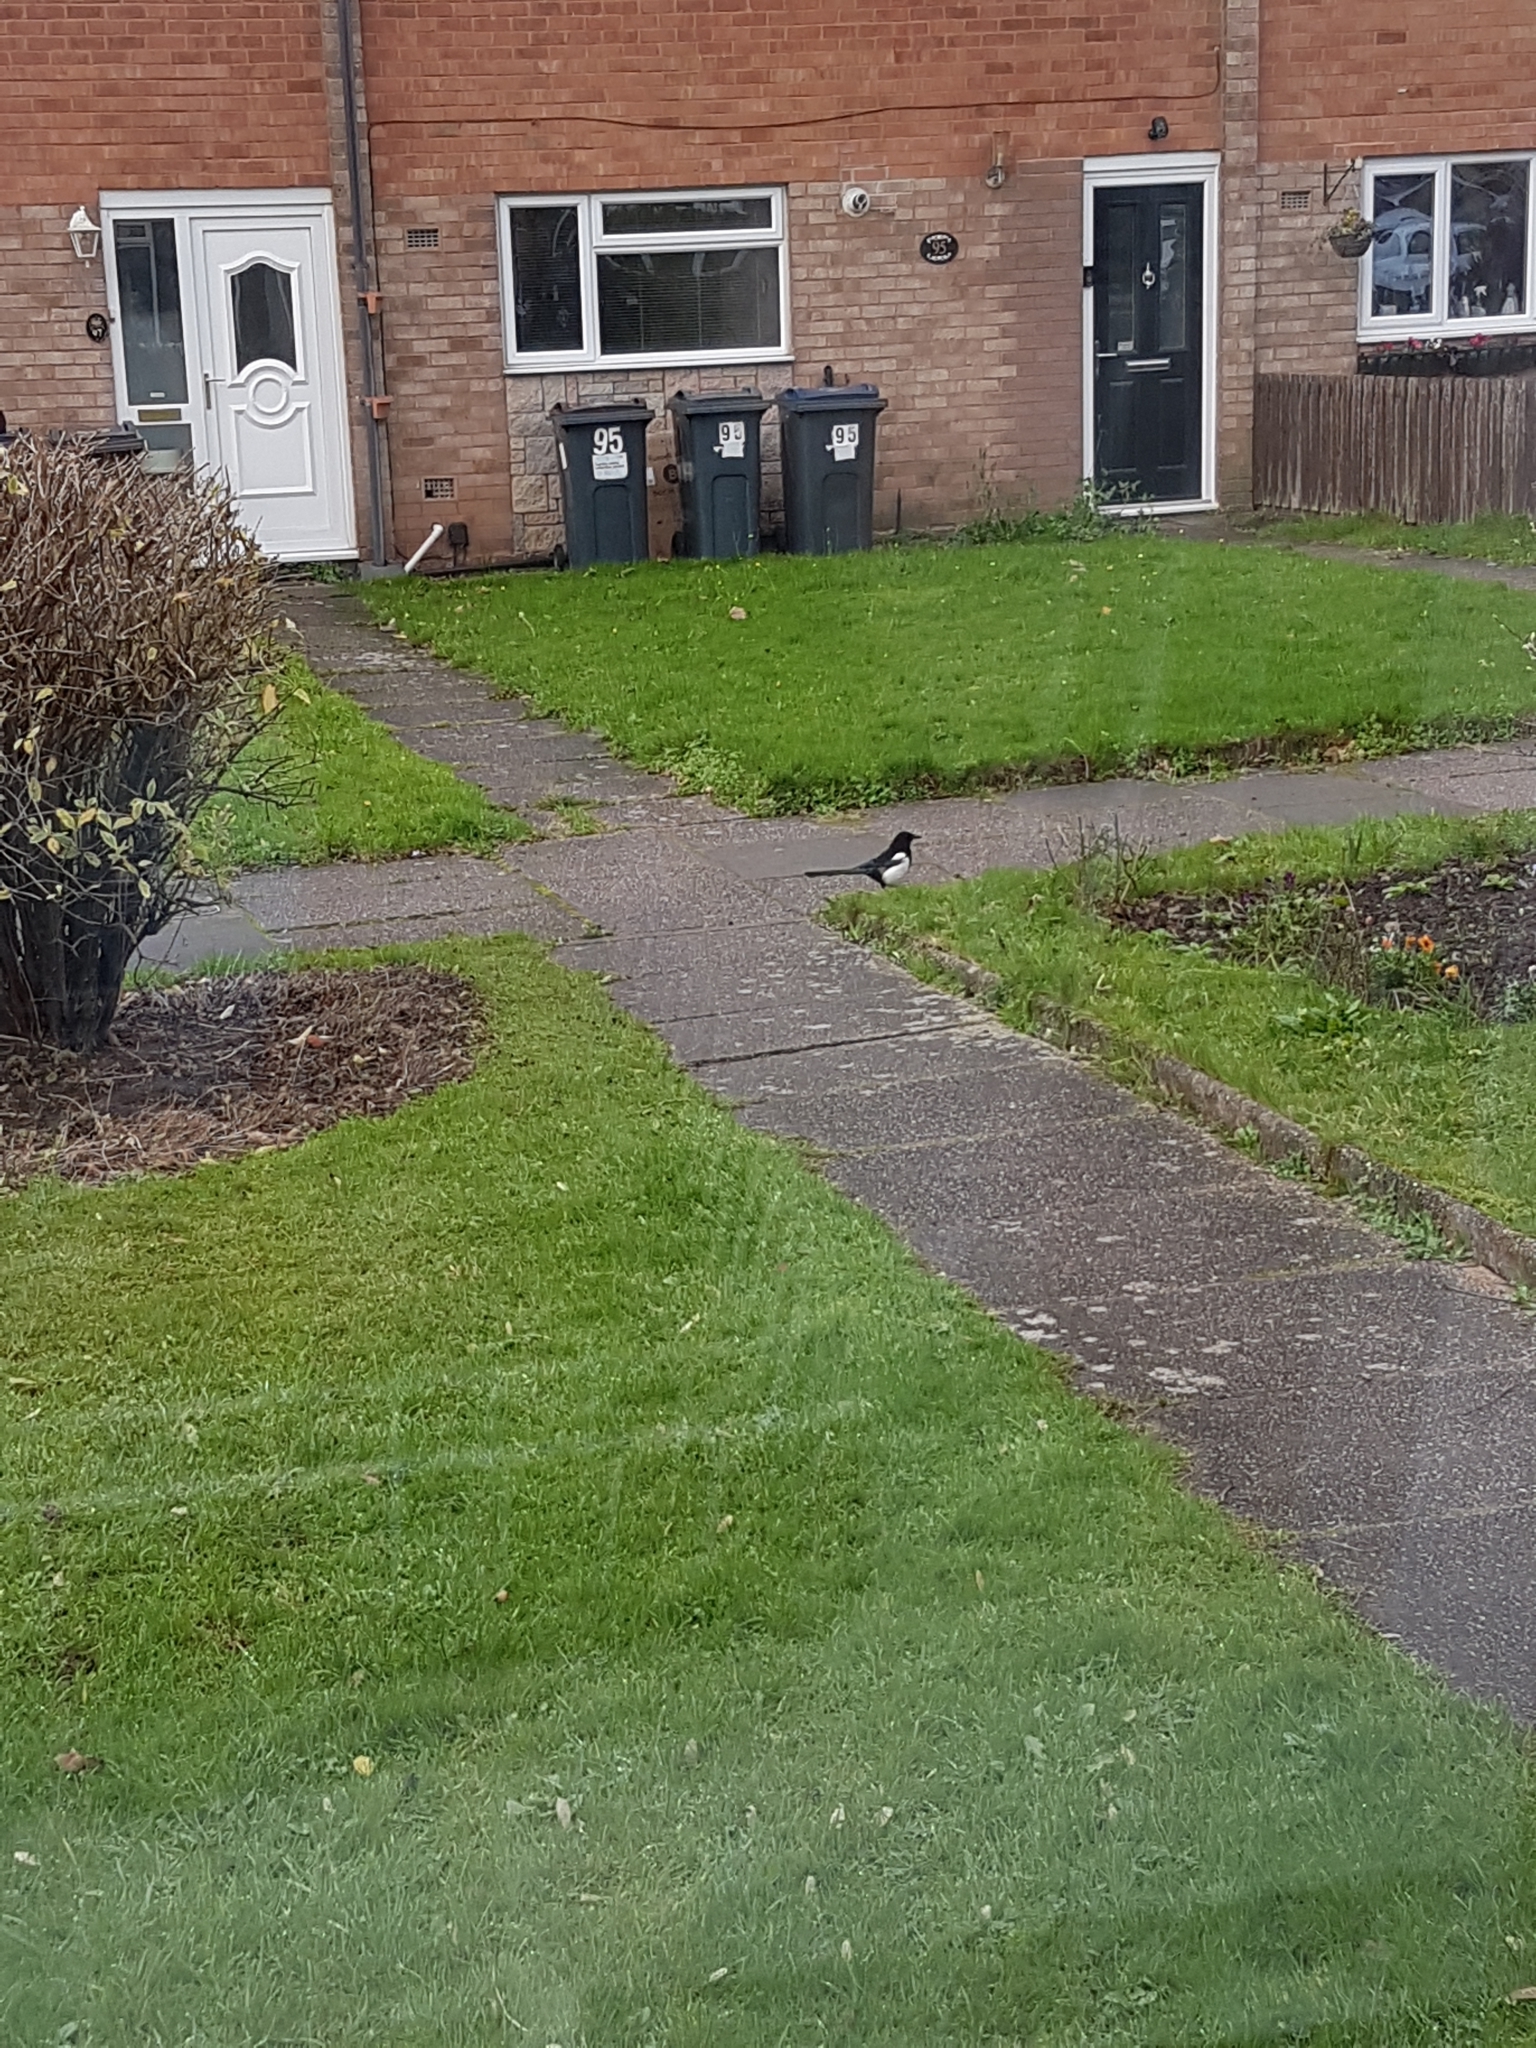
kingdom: Animalia
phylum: Chordata
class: Aves
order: Passeriformes
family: Corvidae
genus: Pica
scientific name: Pica pica
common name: Eurasian magpie
